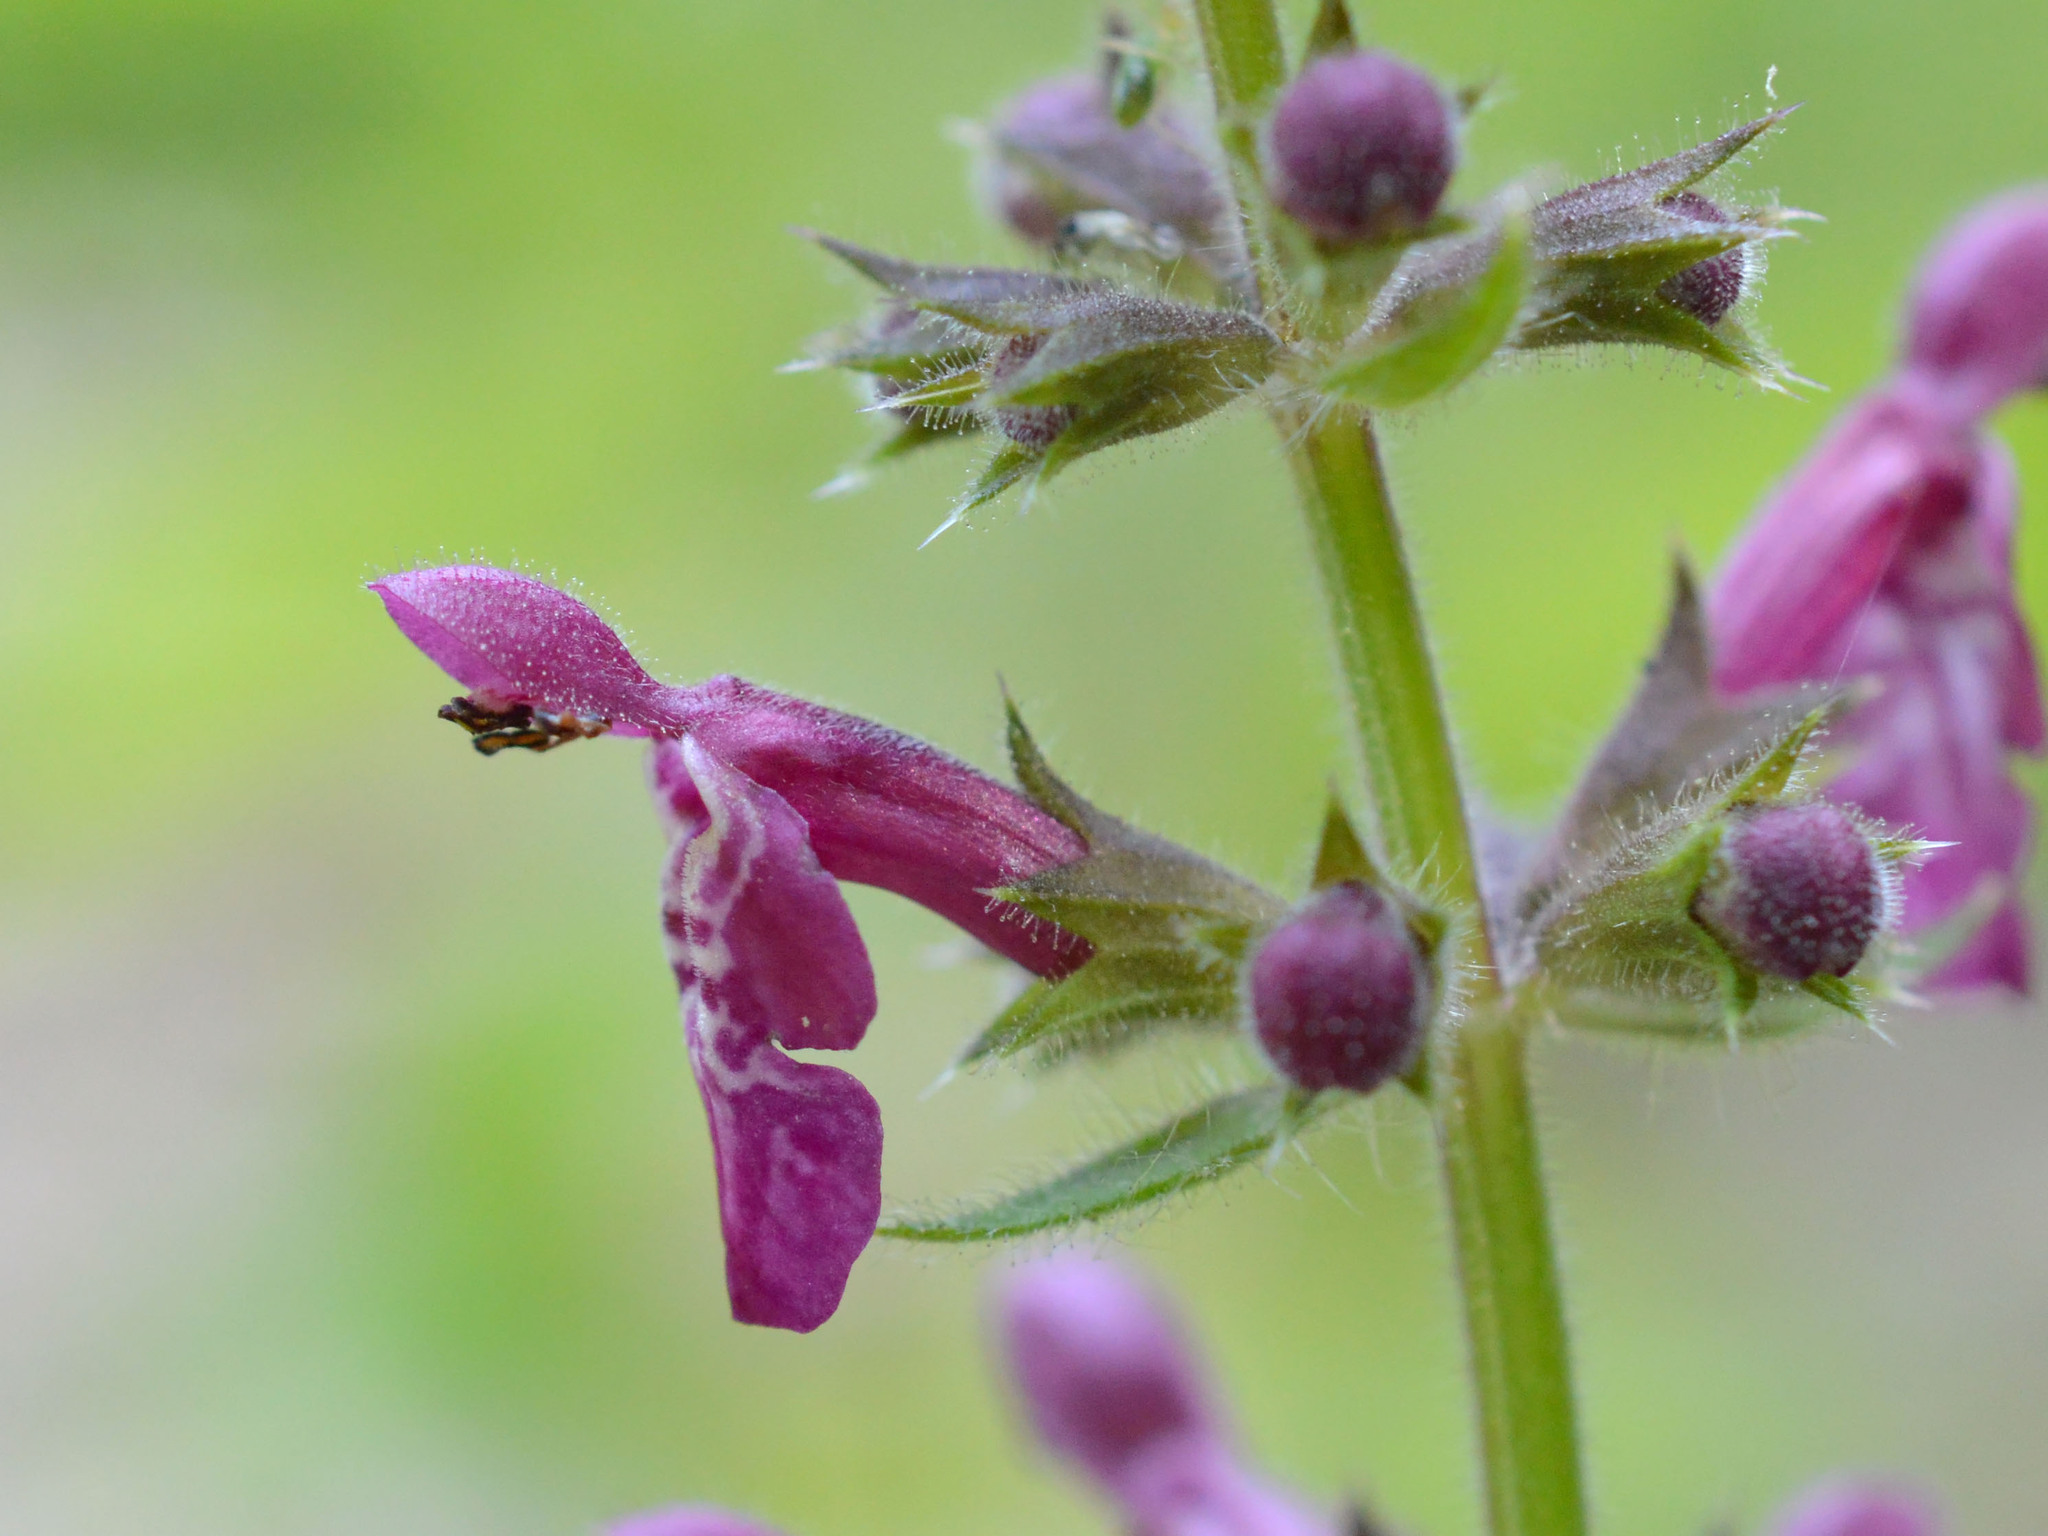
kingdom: Plantae
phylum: Tracheophyta
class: Magnoliopsida
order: Lamiales
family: Lamiaceae
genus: Stachys
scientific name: Stachys sylvatica
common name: Hedge woundwort
